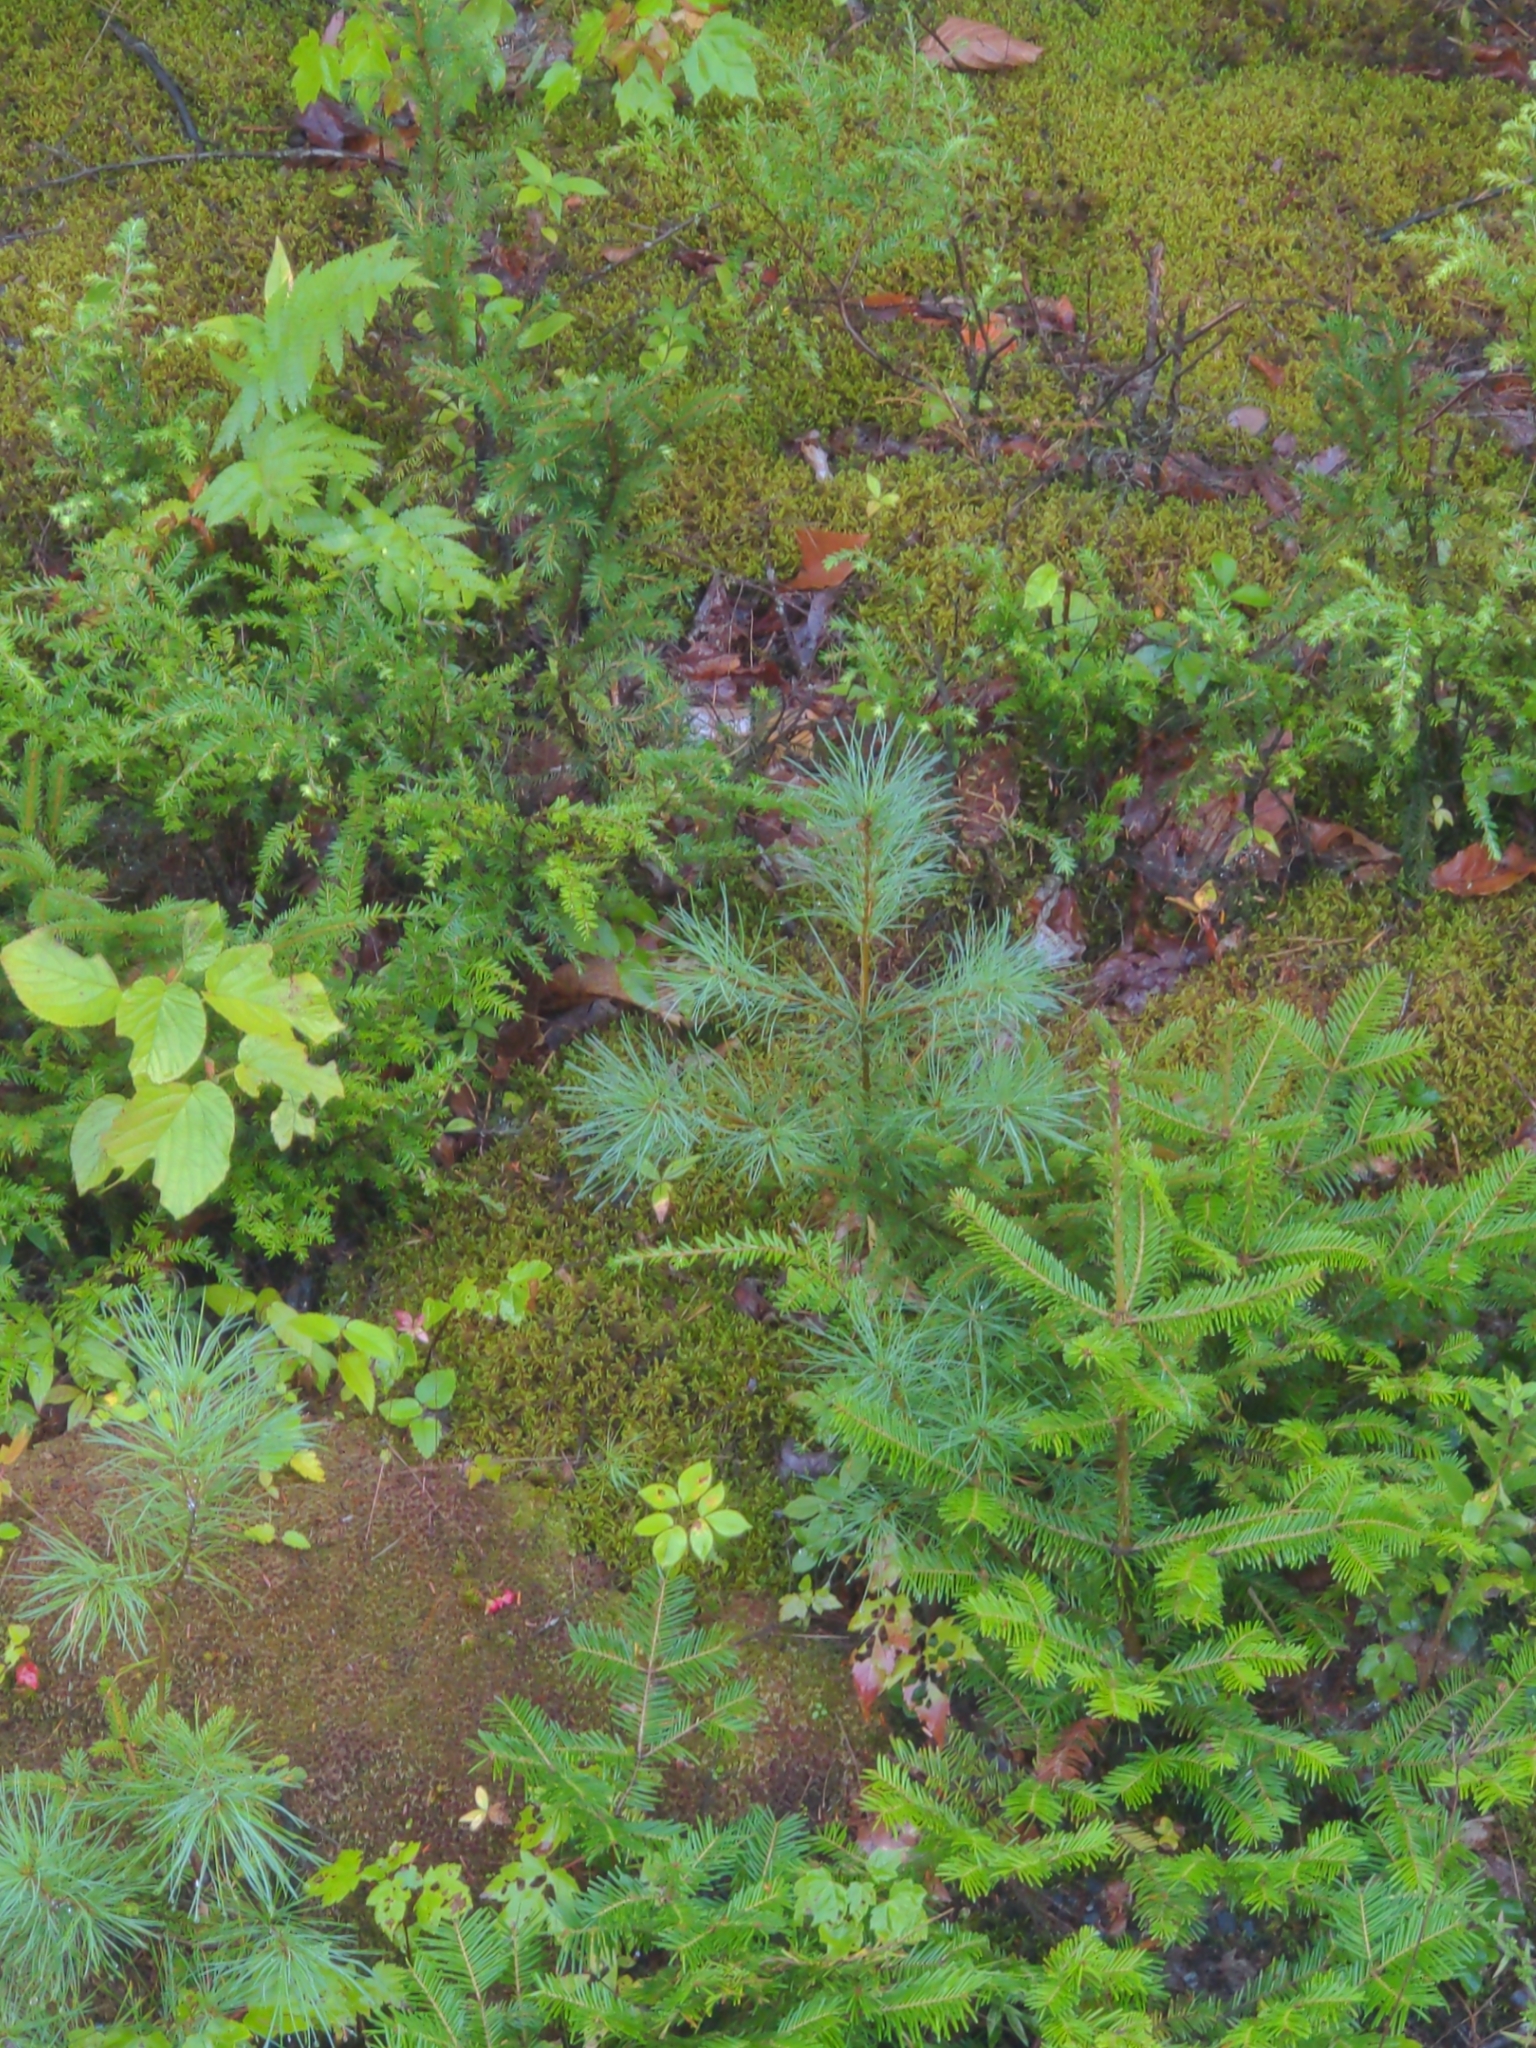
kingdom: Plantae
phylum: Tracheophyta
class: Pinopsida
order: Pinales
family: Pinaceae
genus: Abies
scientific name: Abies balsamea
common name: Balsam fir
